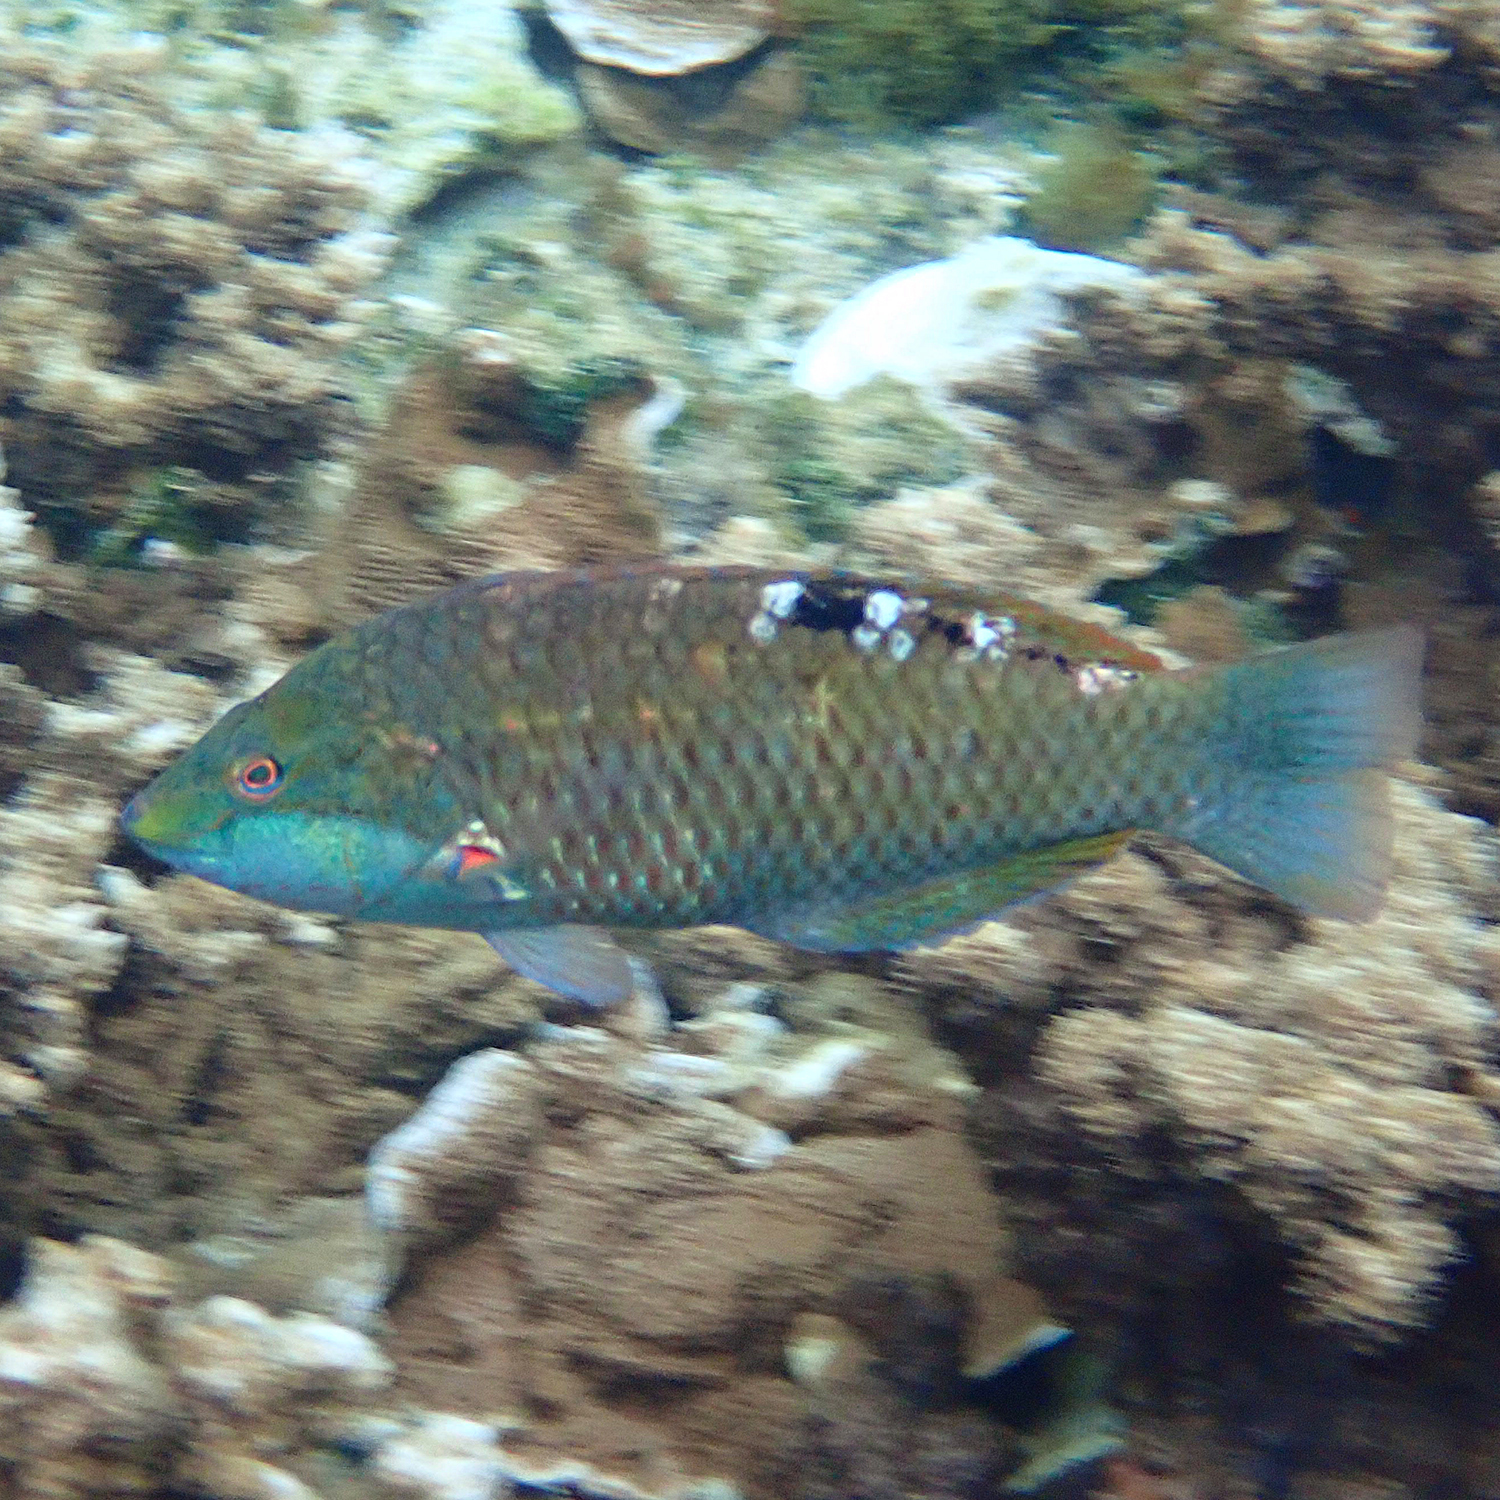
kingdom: Animalia
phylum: Chordata
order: Perciformes
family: Labridae
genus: Pseudolabrus
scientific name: Pseudolabrus luculentus
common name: Luculentus wrasse
